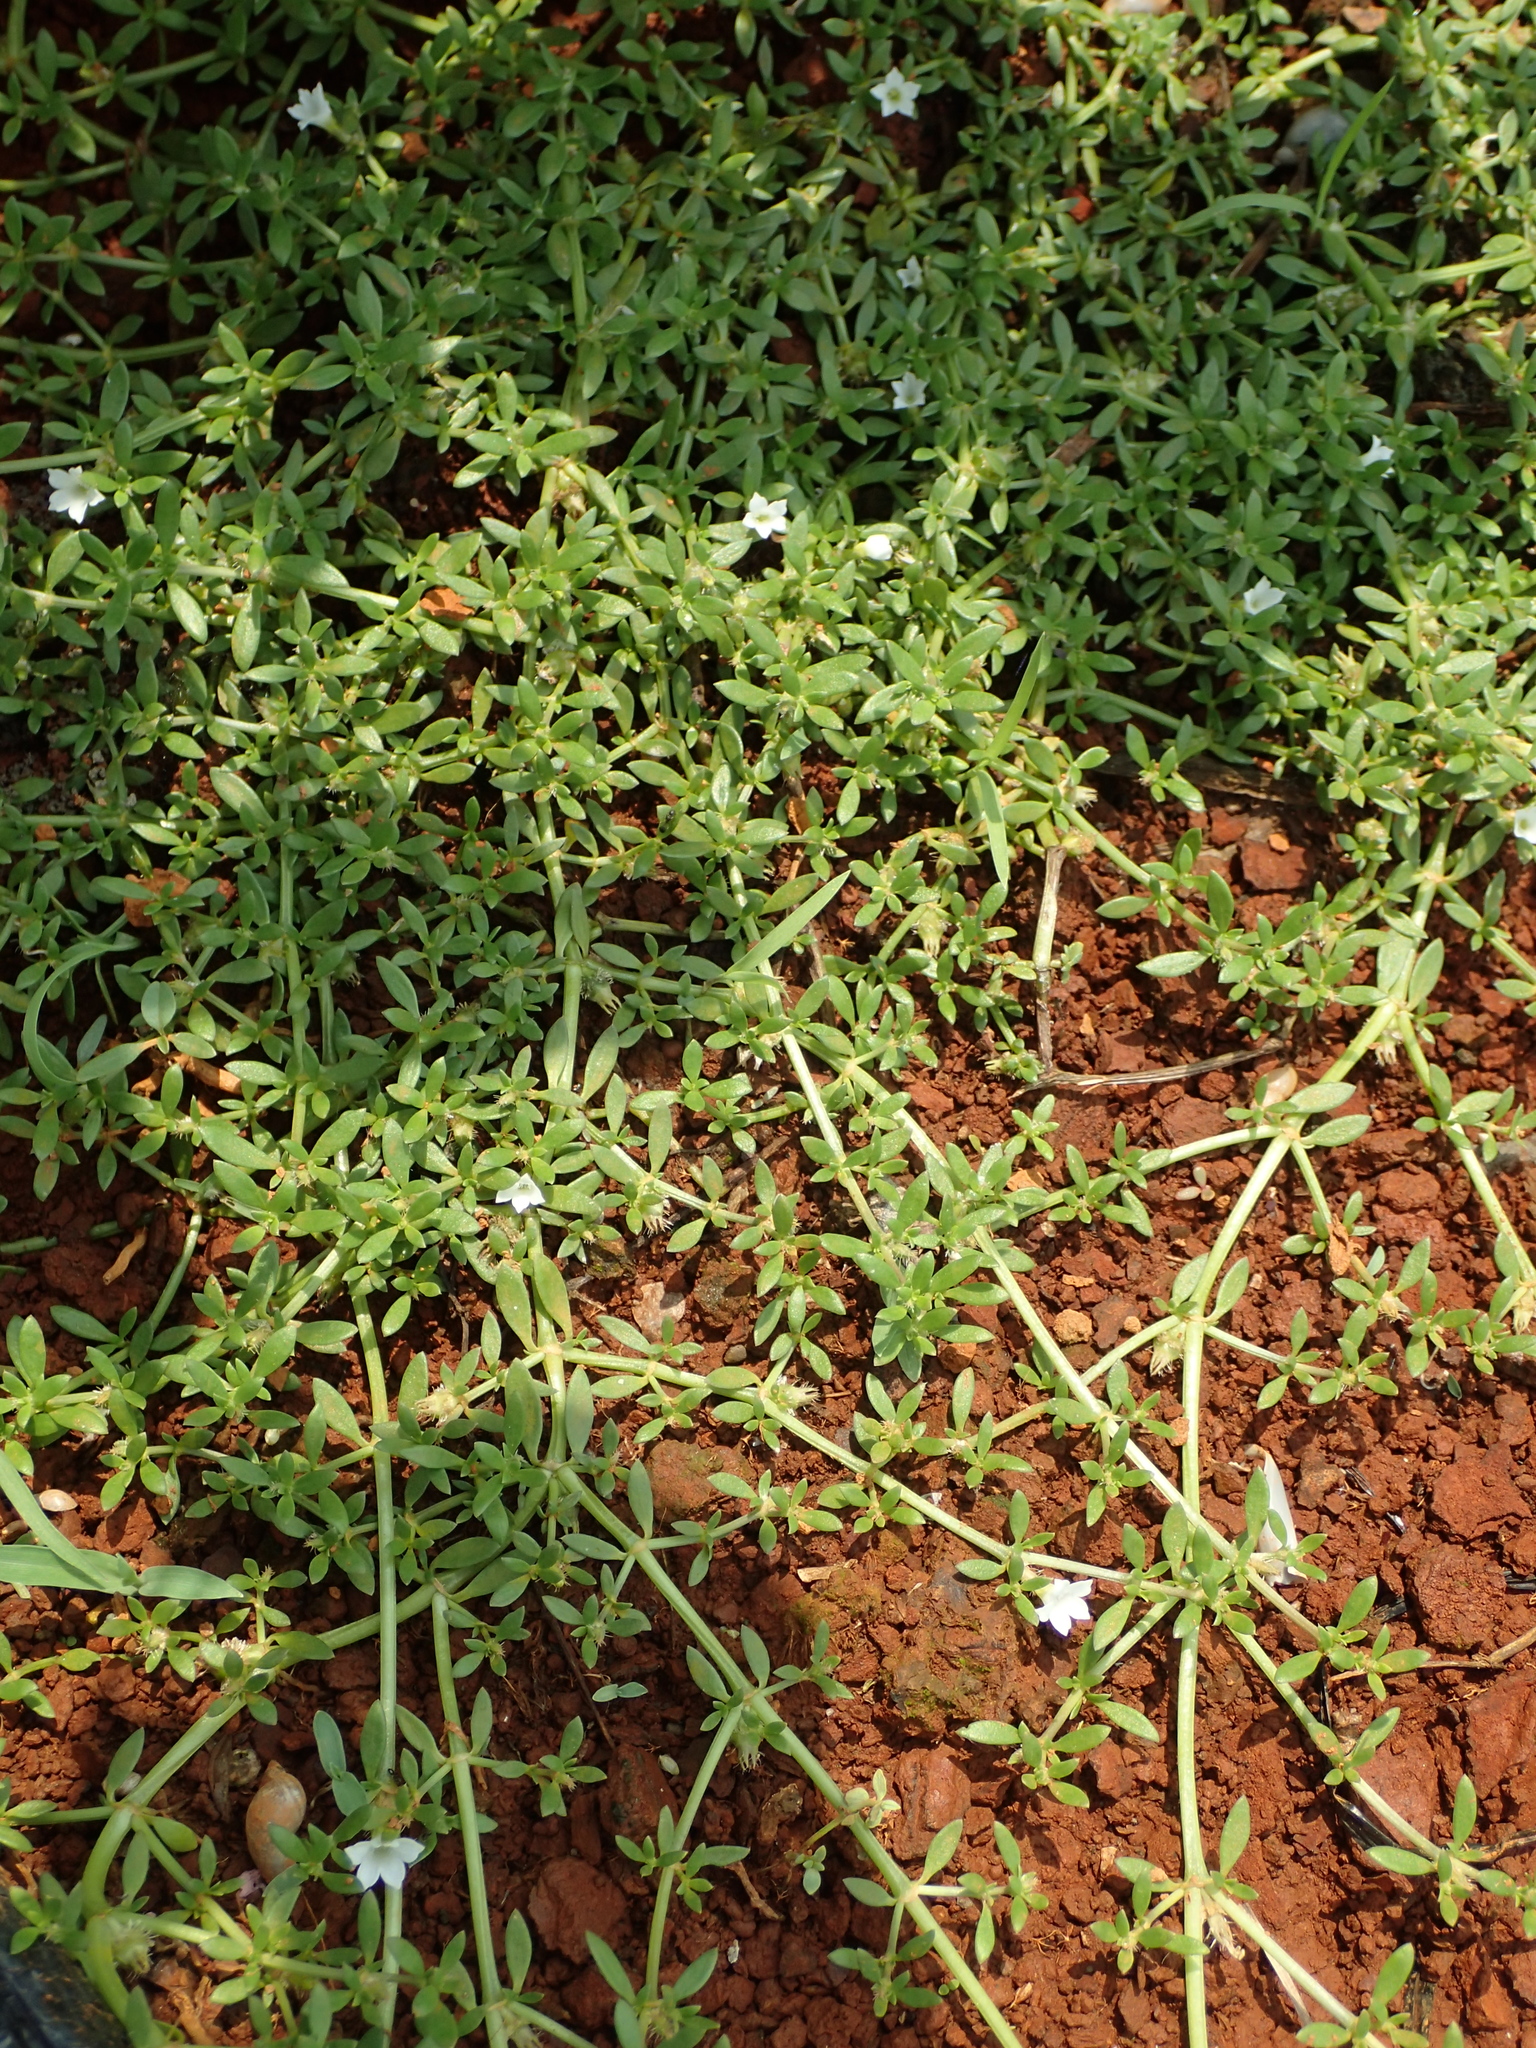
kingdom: Plantae
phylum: Tracheophyta
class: Magnoliopsida
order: Gentianales
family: Rubiaceae
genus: Dentella
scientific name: Dentella repens
